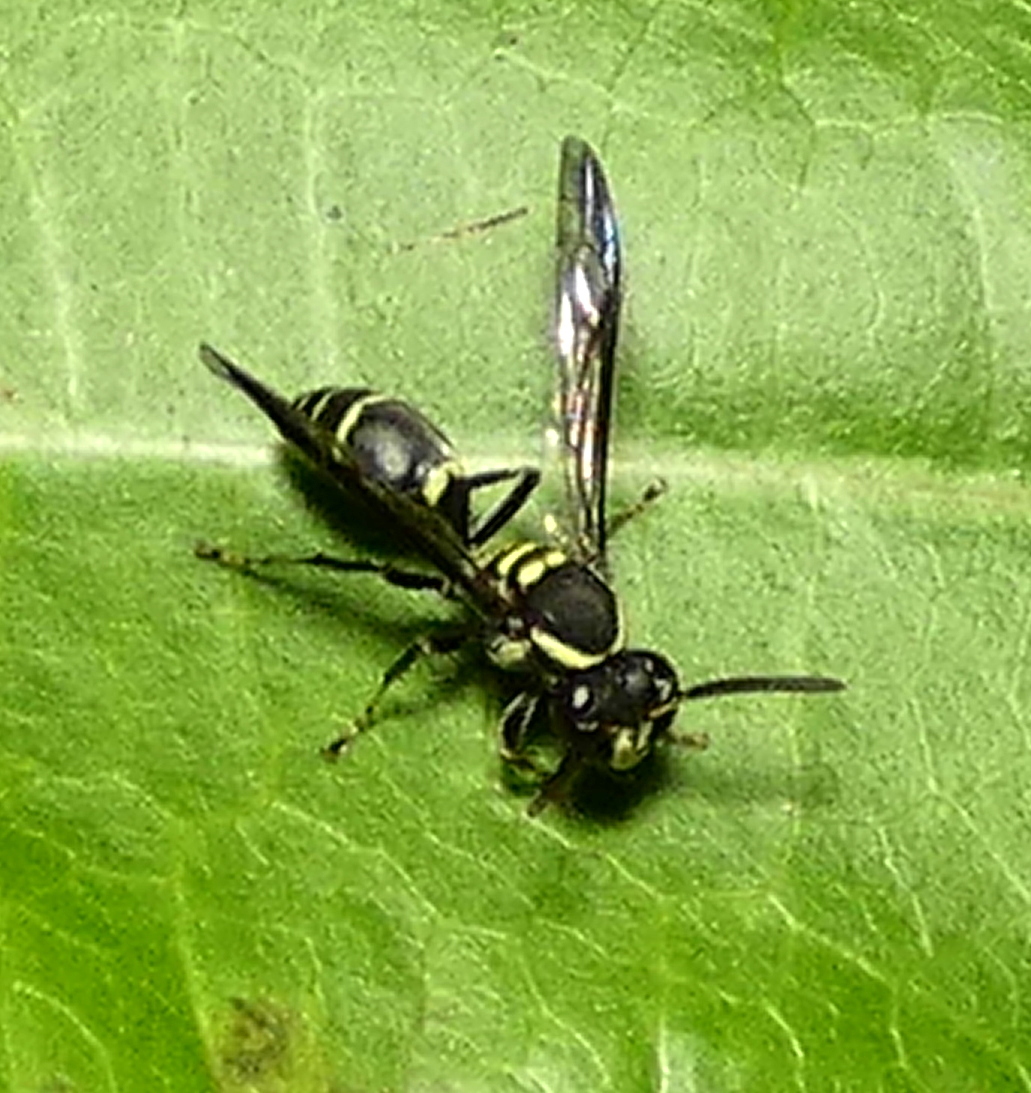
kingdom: Animalia
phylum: Arthropoda
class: Insecta
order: Hymenoptera
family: Eumenidae
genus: Polybia
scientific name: Polybia occidentalis
